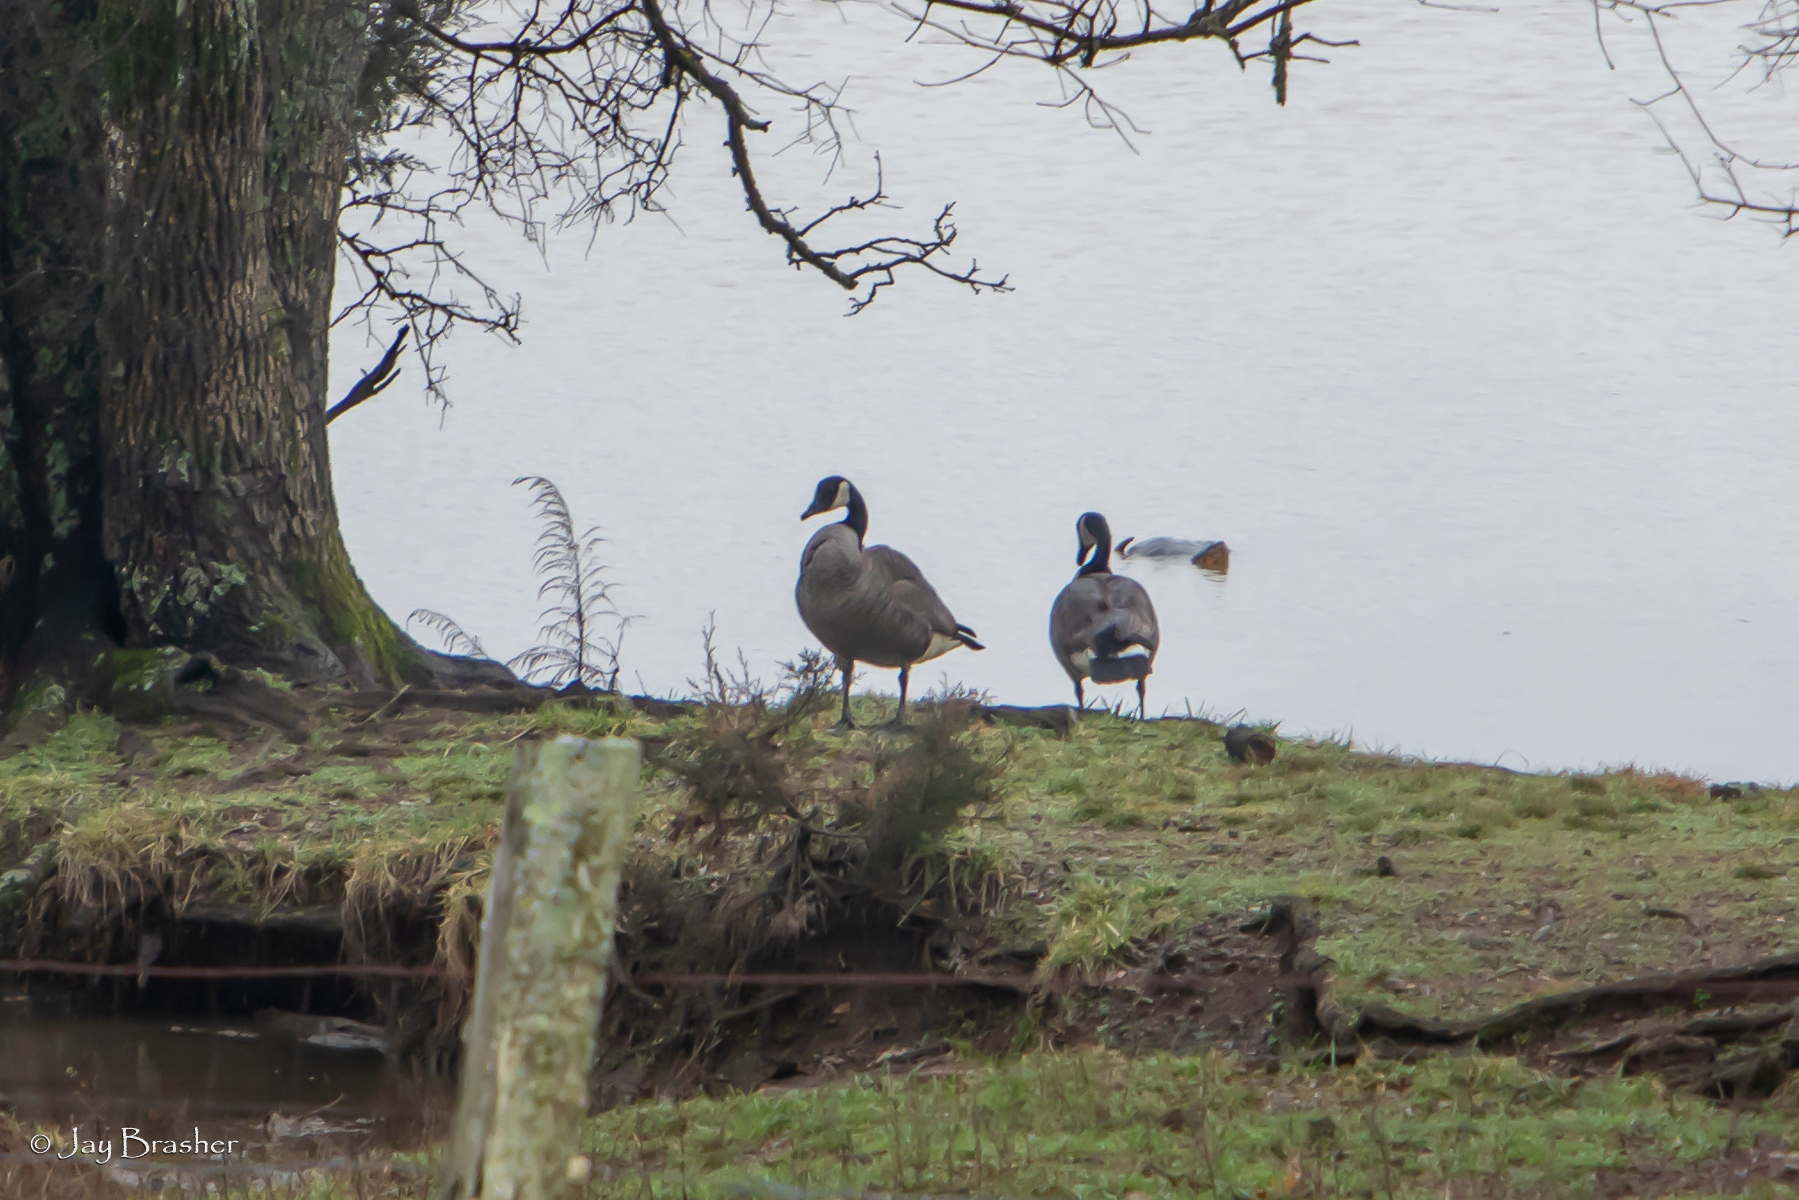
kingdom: Animalia
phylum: Chordata
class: Aves
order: Anseriformes
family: Anatidae
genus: Branta
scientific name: Branta canadensis
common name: Canada goose
